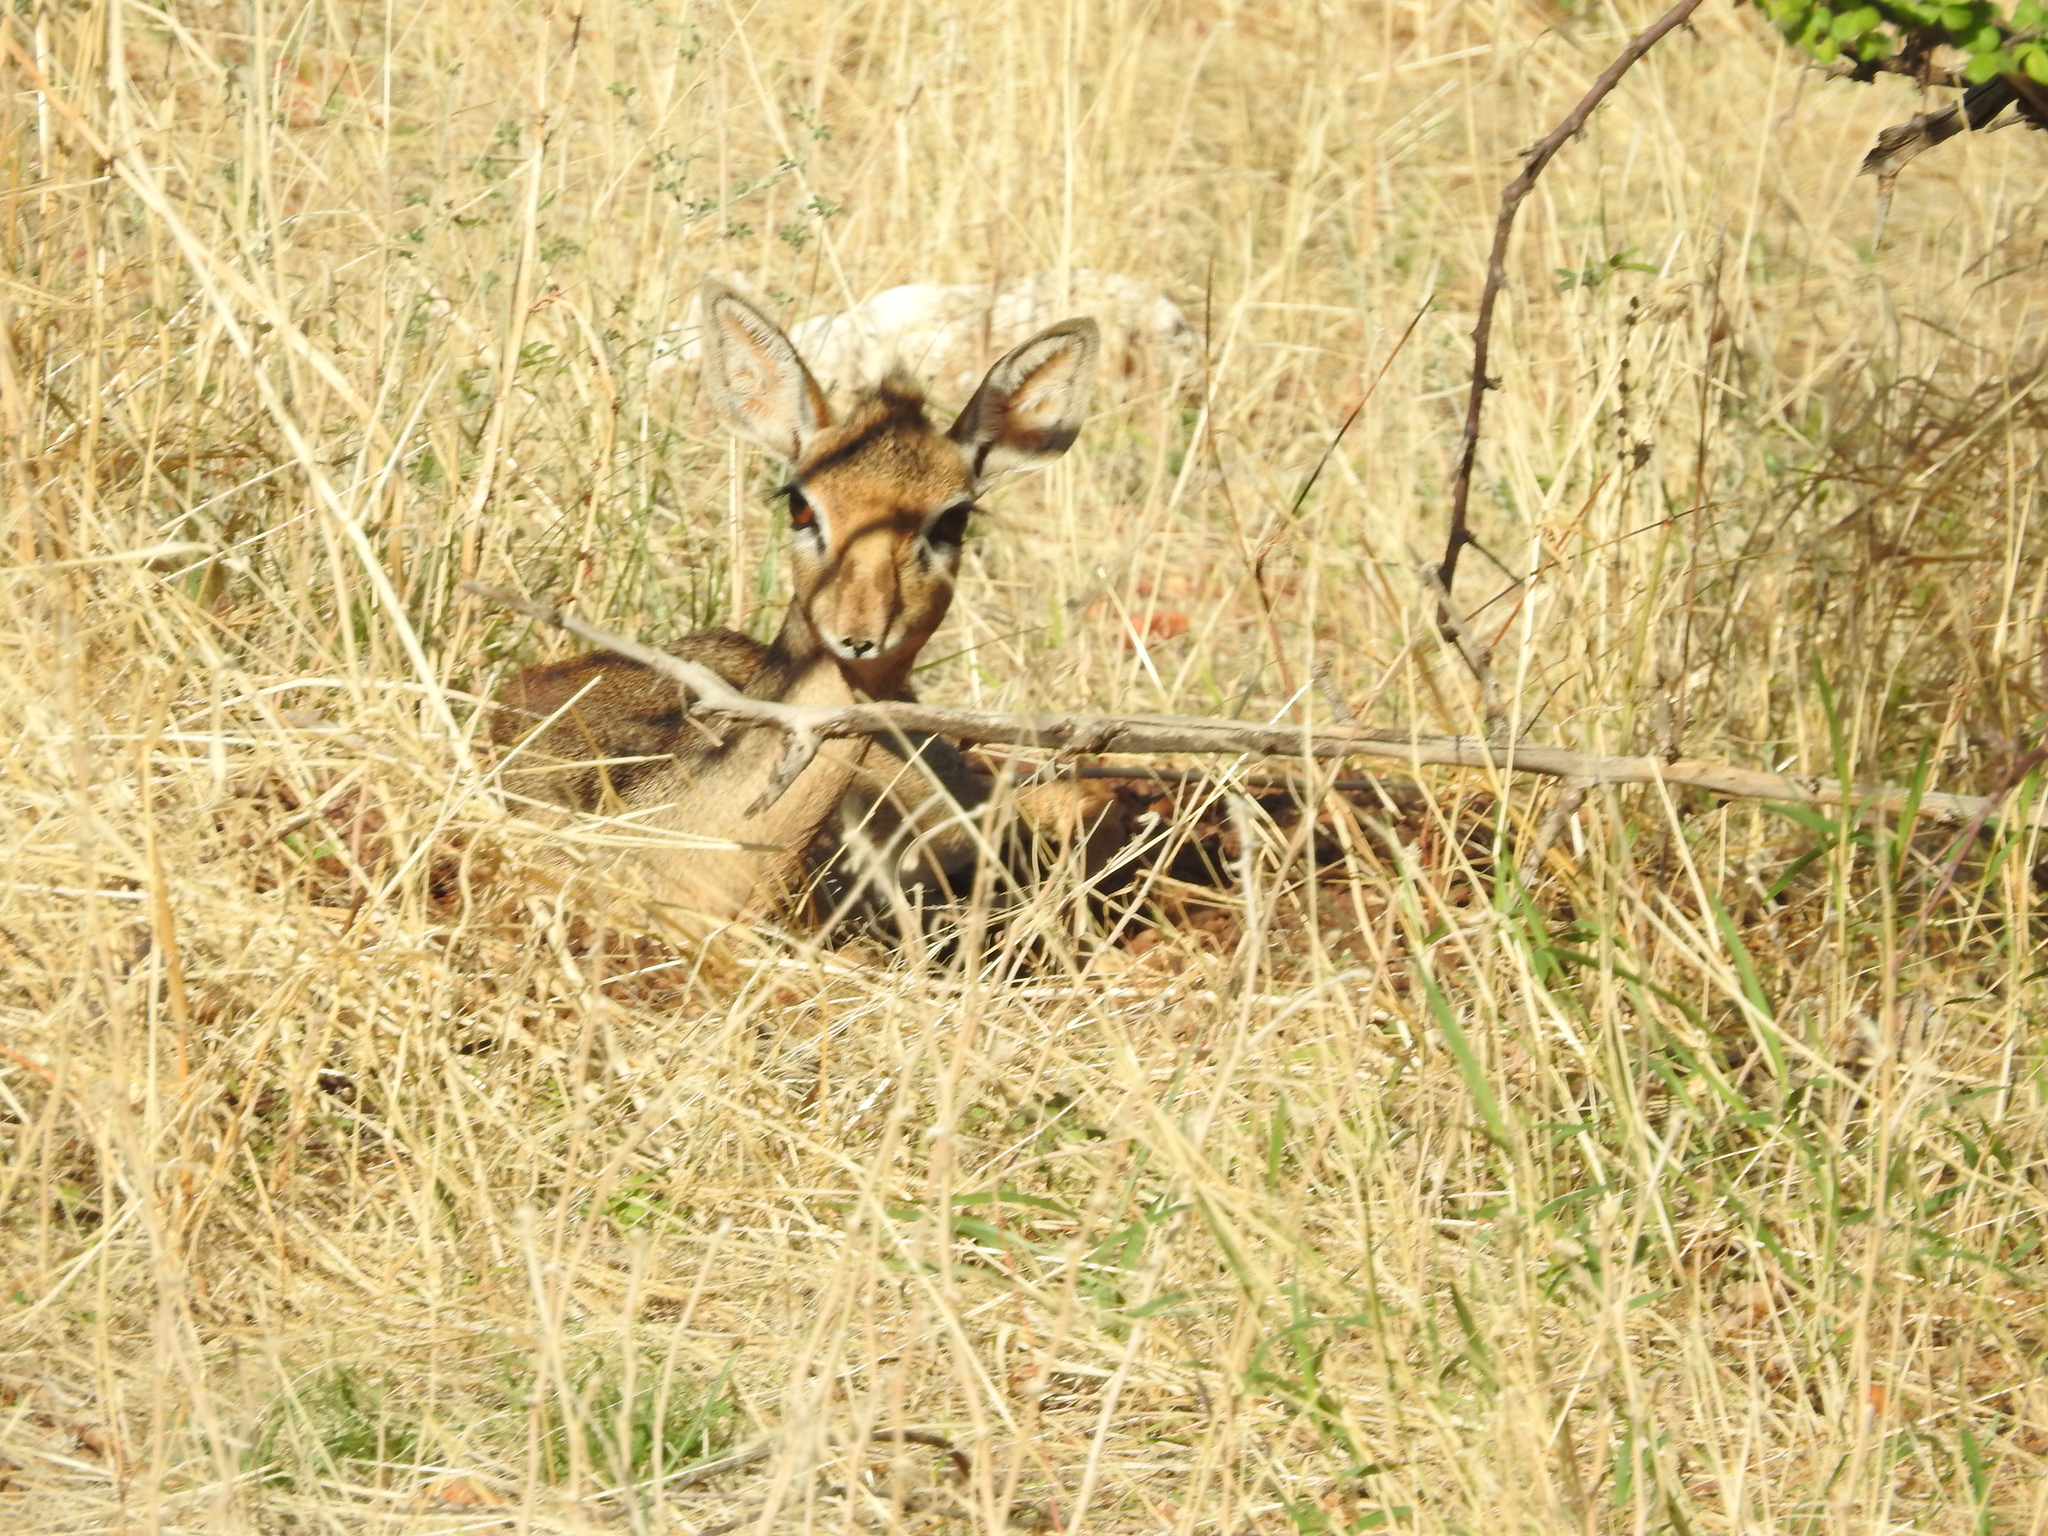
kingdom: Animalia
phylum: Chordata
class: Mammalia
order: Artiodactyla
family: Bovidae
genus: Madoqua
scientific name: Madoqua kirkii
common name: Kirk's dik-dik
